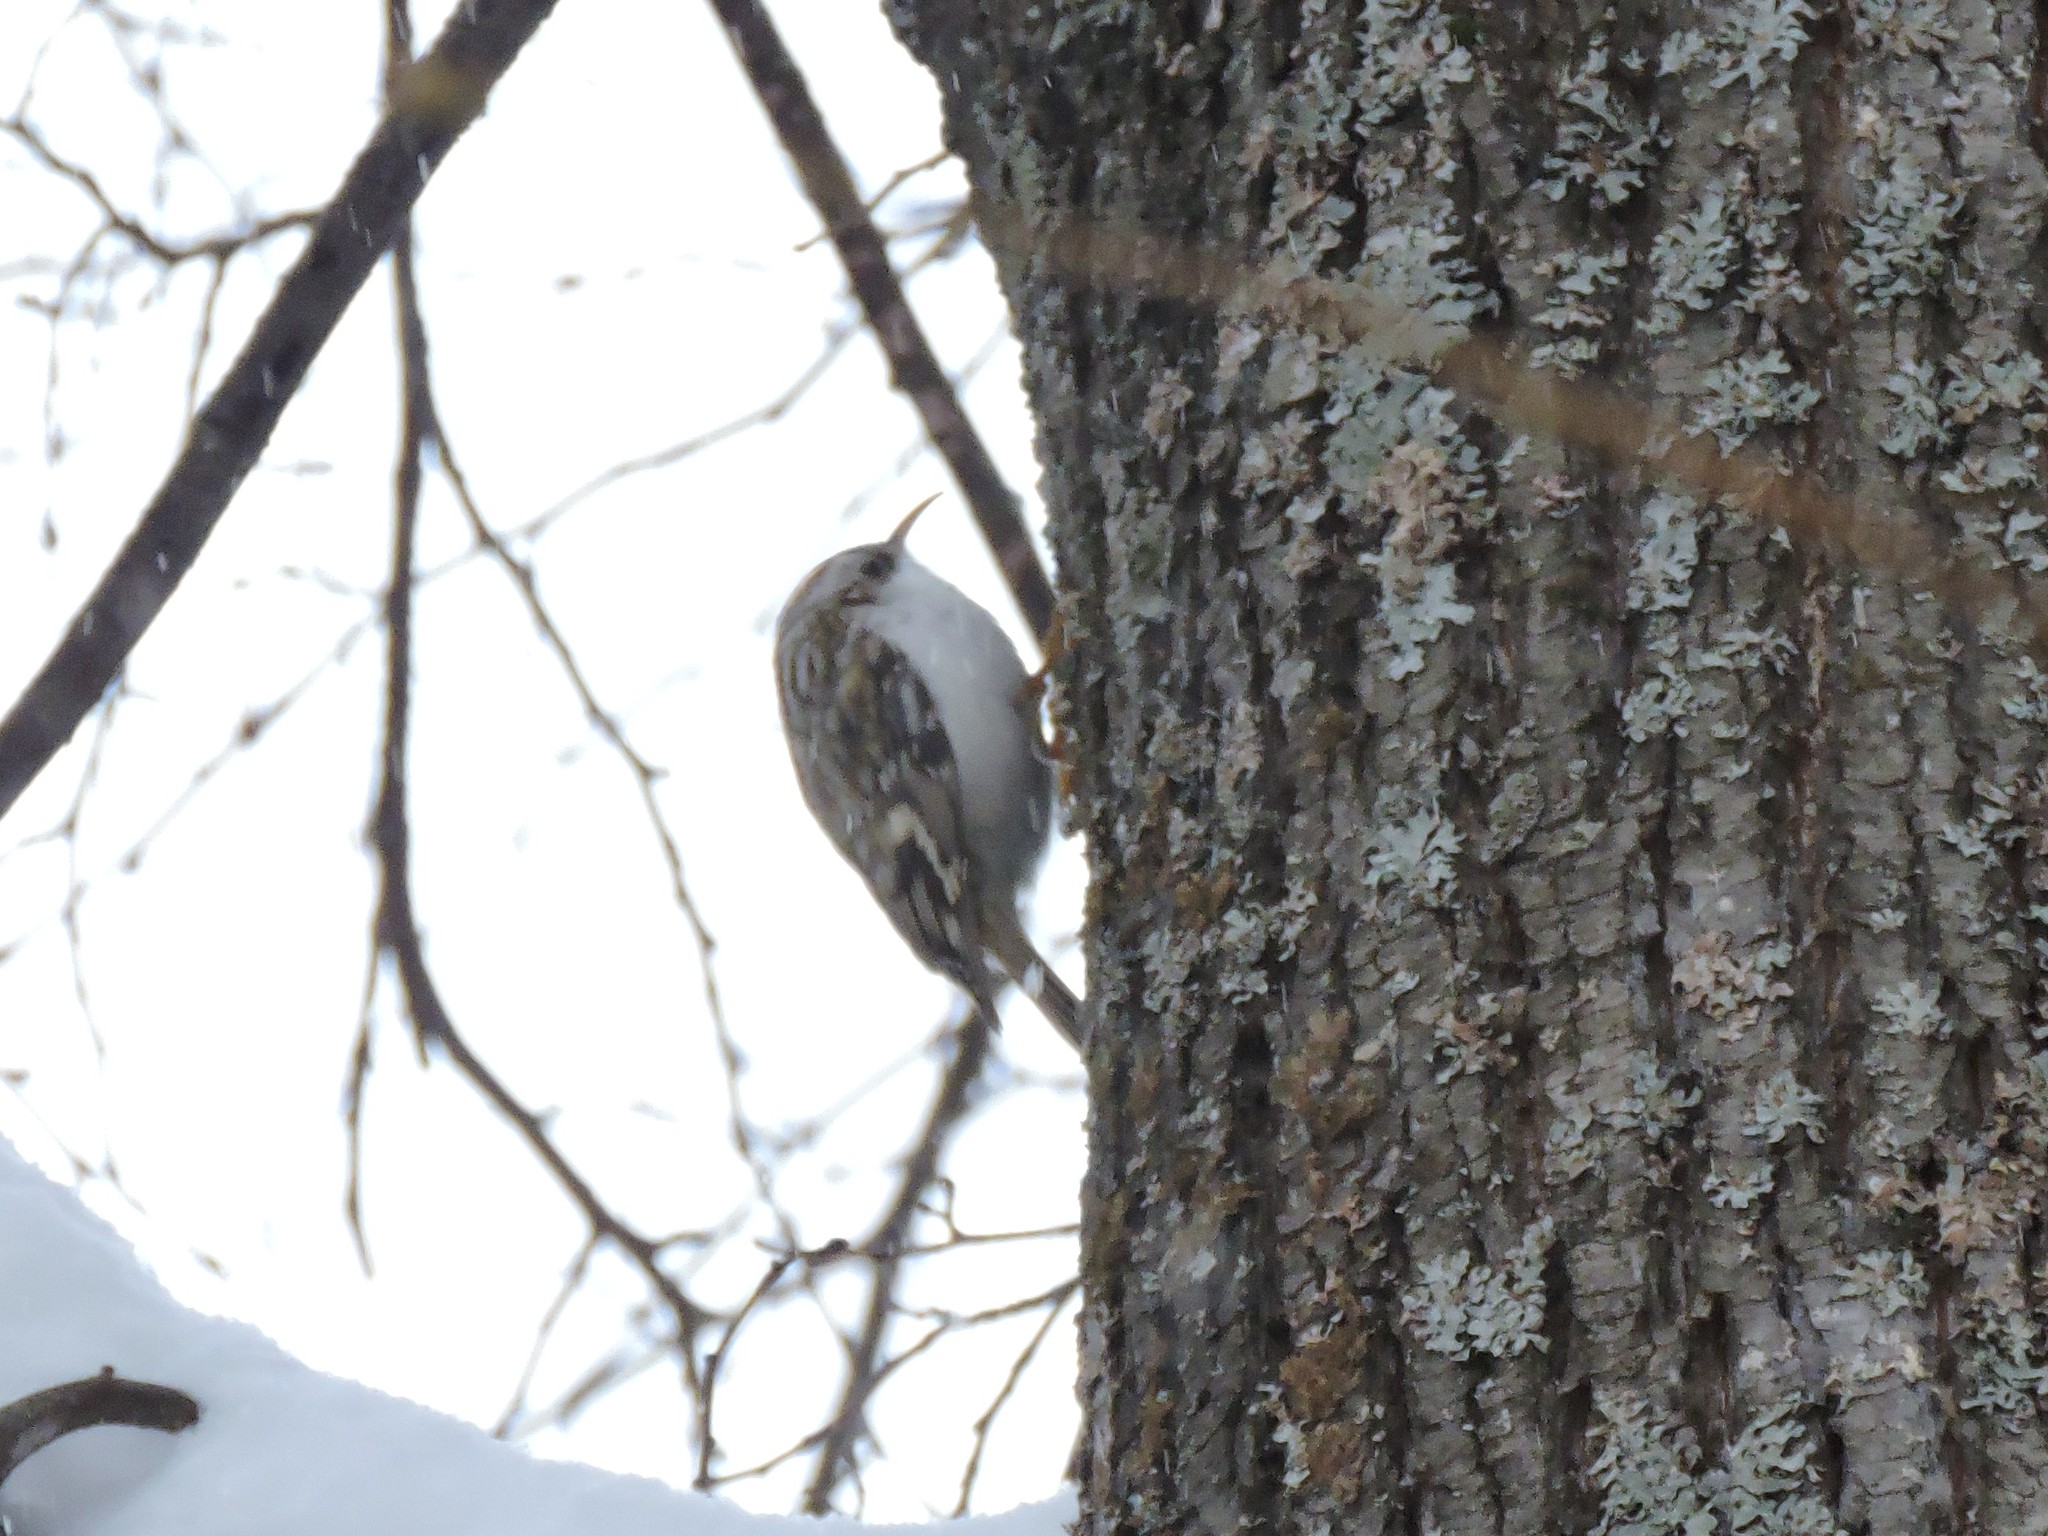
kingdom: Animalia
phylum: Chordata
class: Aves
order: Passeriformes
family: Certhiidae
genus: Certhia
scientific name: Certhia familiaris
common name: Eurasian treecreeper
